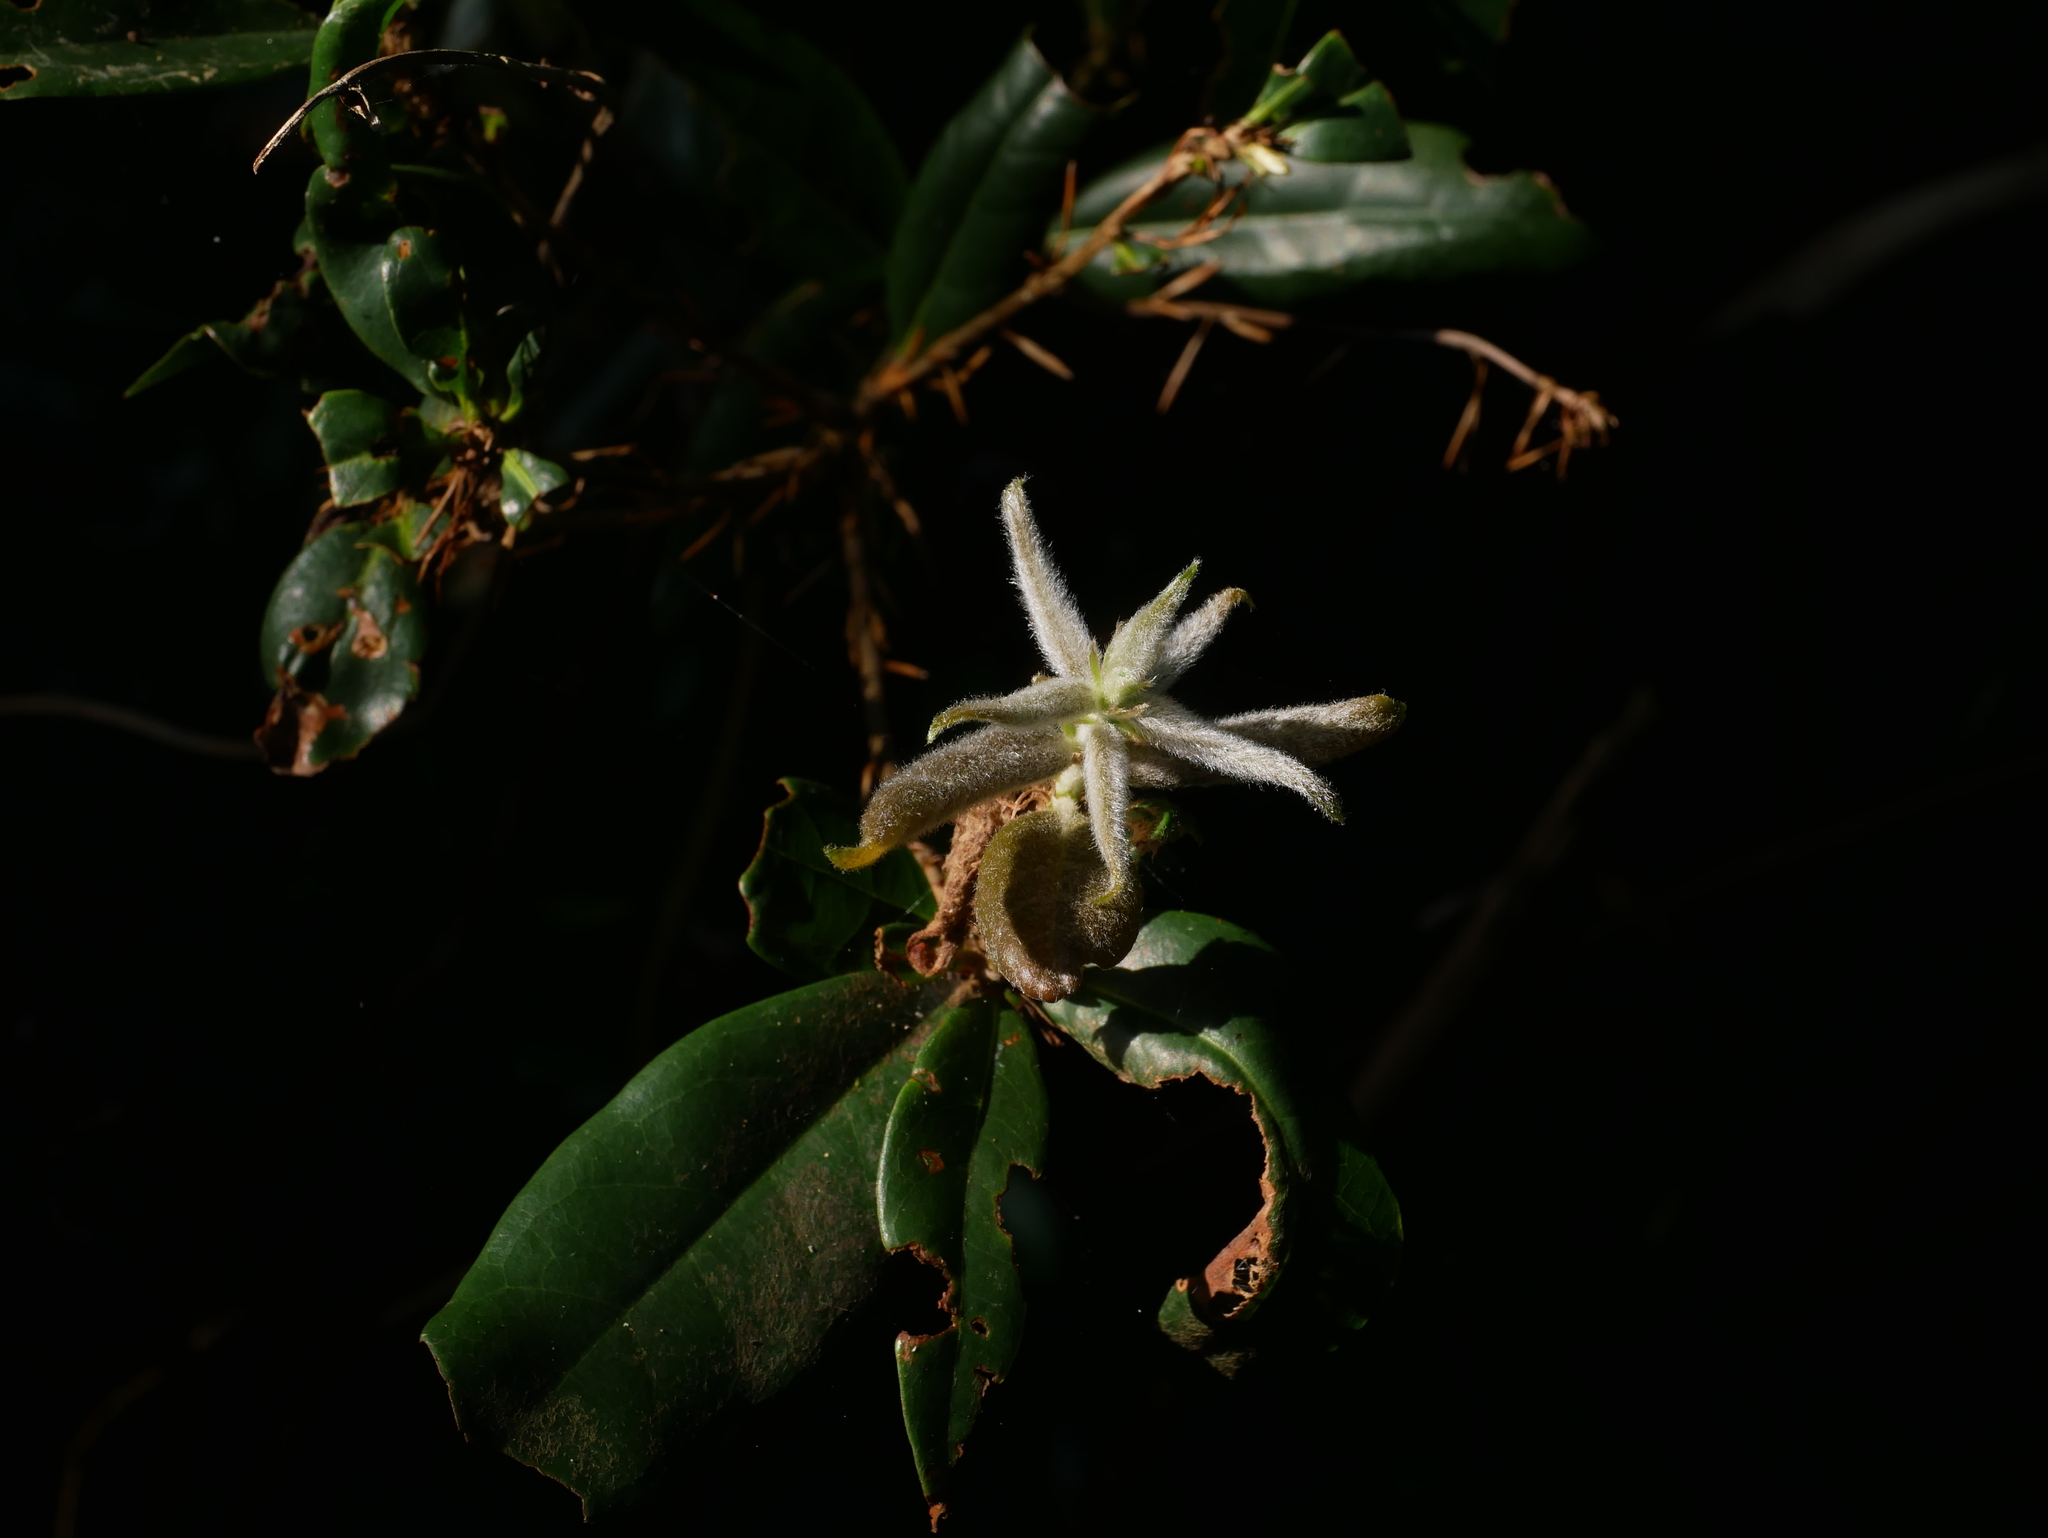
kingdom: Plantae
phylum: Tracheophyta
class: Magnoliopsida
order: Fagales
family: Fagaceae
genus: Quercus
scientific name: Quercus sessilifolia
